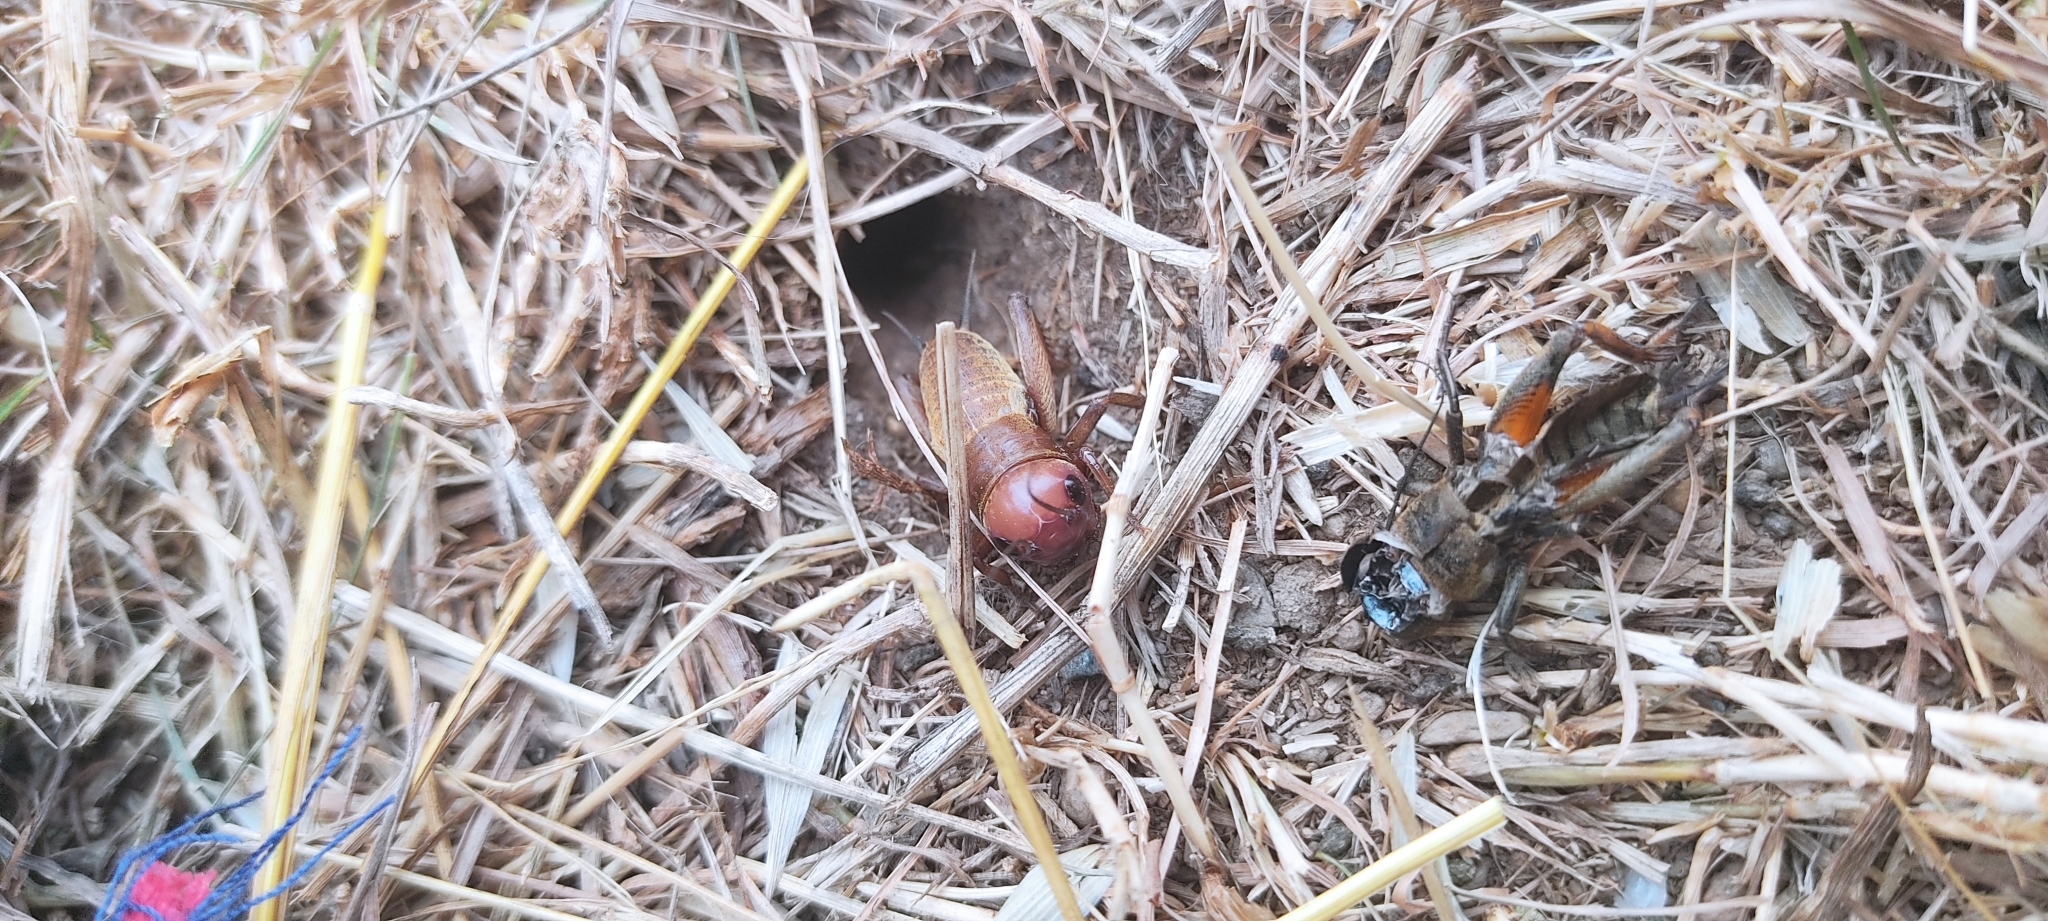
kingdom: Animalia
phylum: Arthropoda
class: Insecta
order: Orthoptera
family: Gryllidae
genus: Gryllus
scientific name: Gryllus campestris
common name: Field cricket
